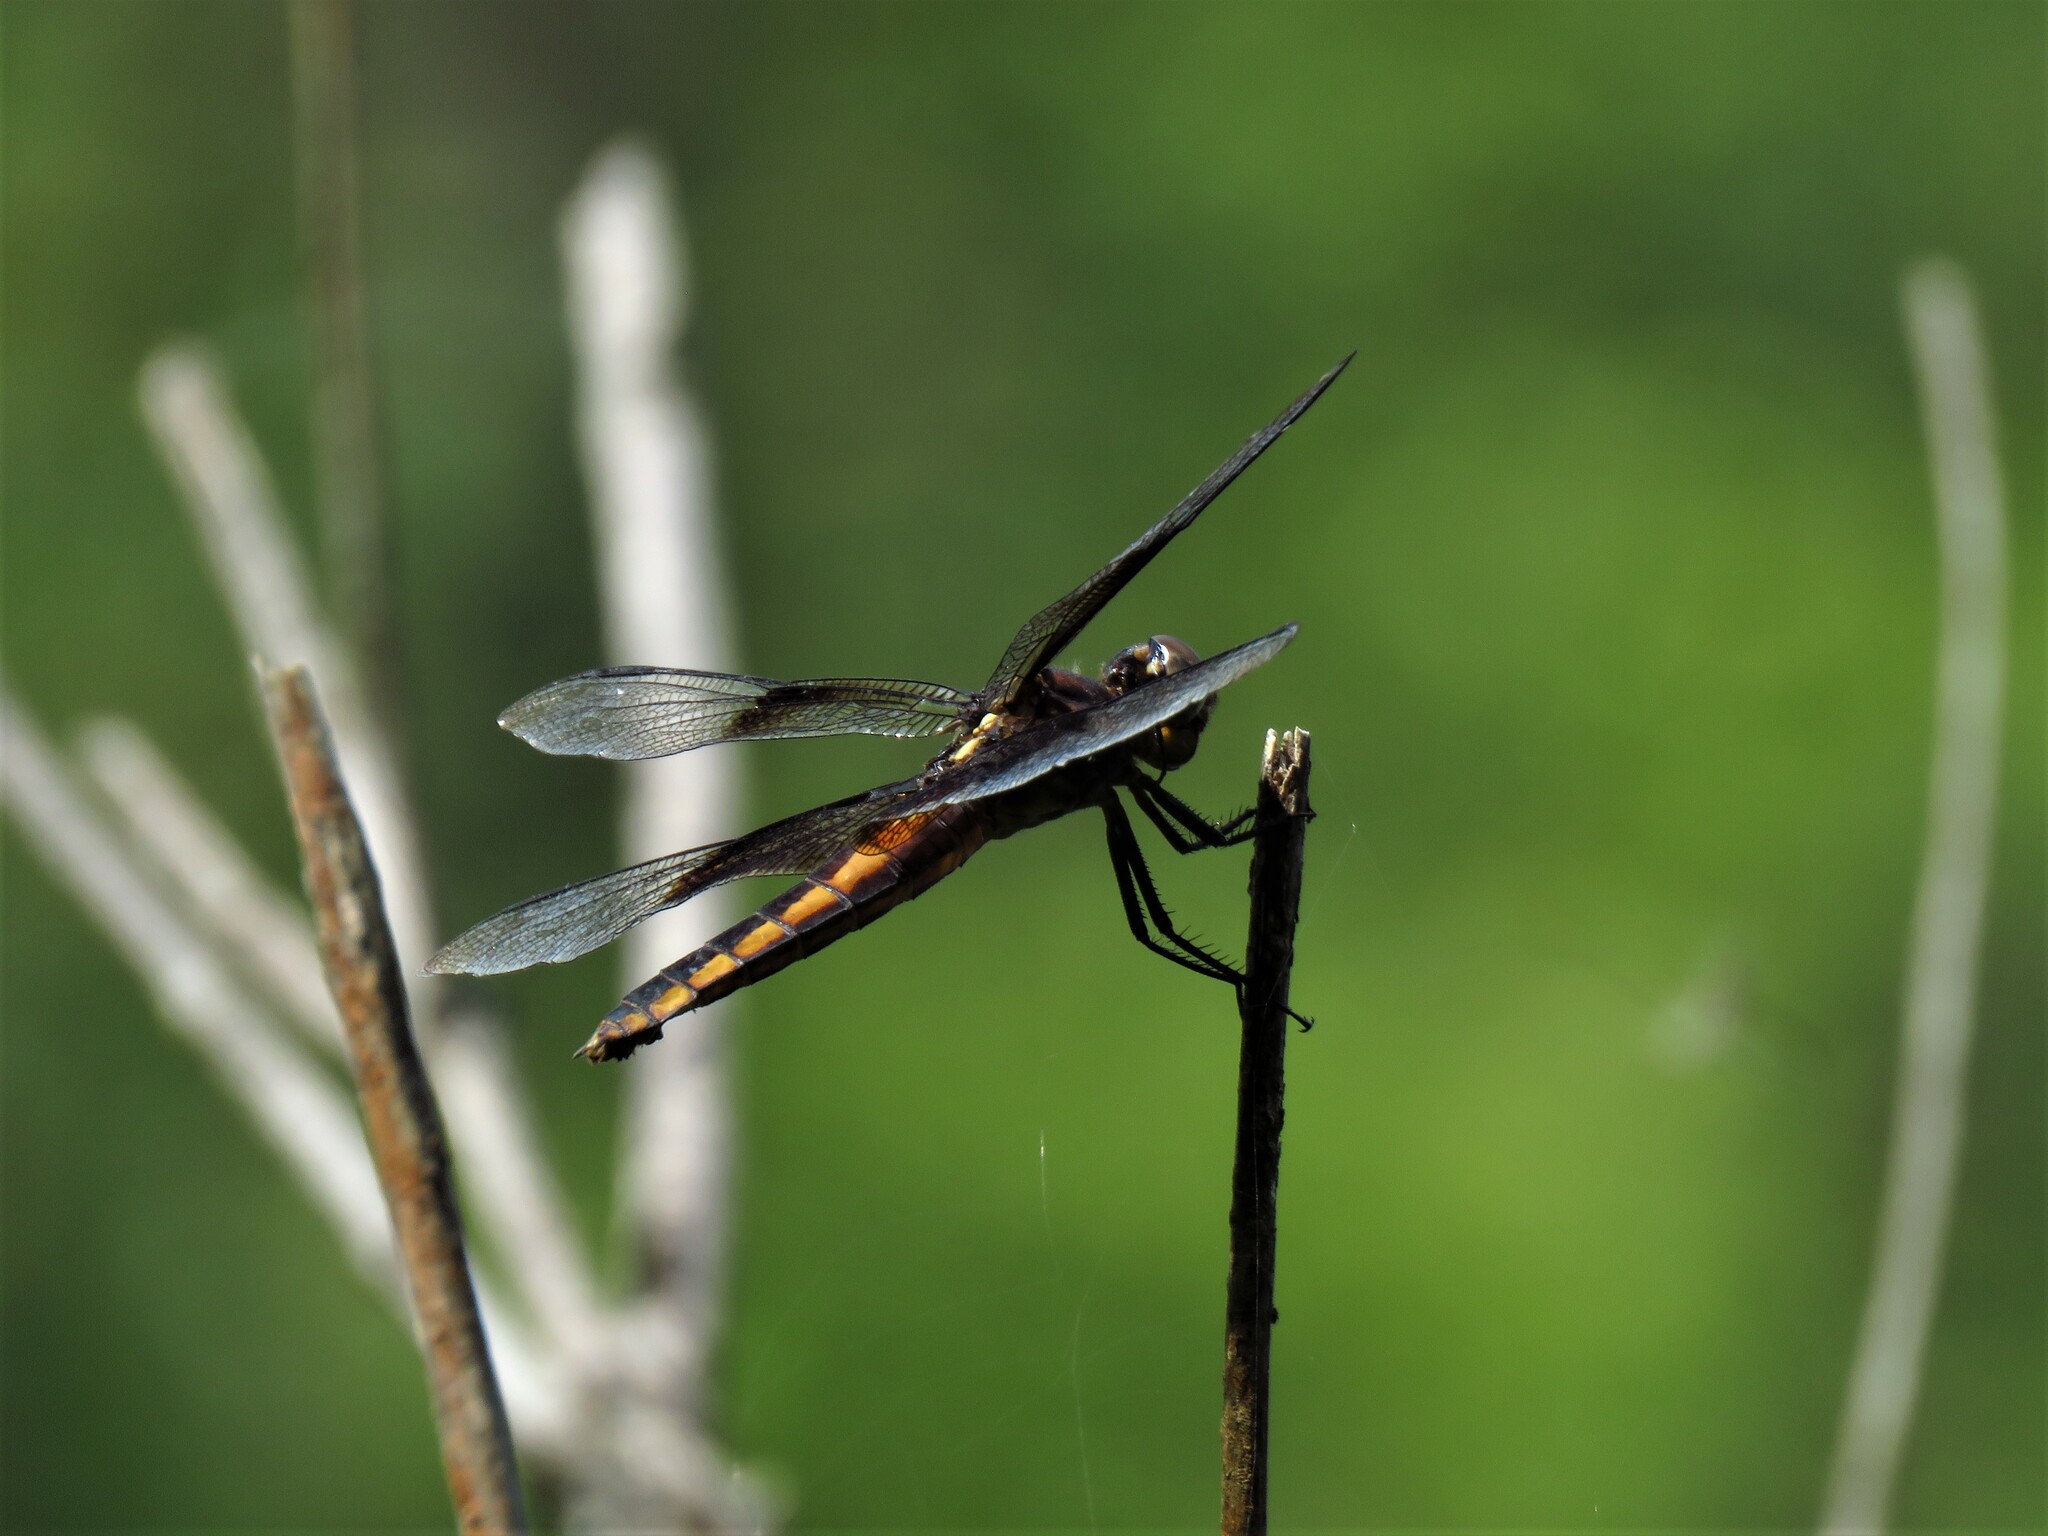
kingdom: Animalia
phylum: Arthropoda
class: Insecta
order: Odonata
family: Libellulidae
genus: Libellula
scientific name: Libellula luctuosa
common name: Widow skimmer
